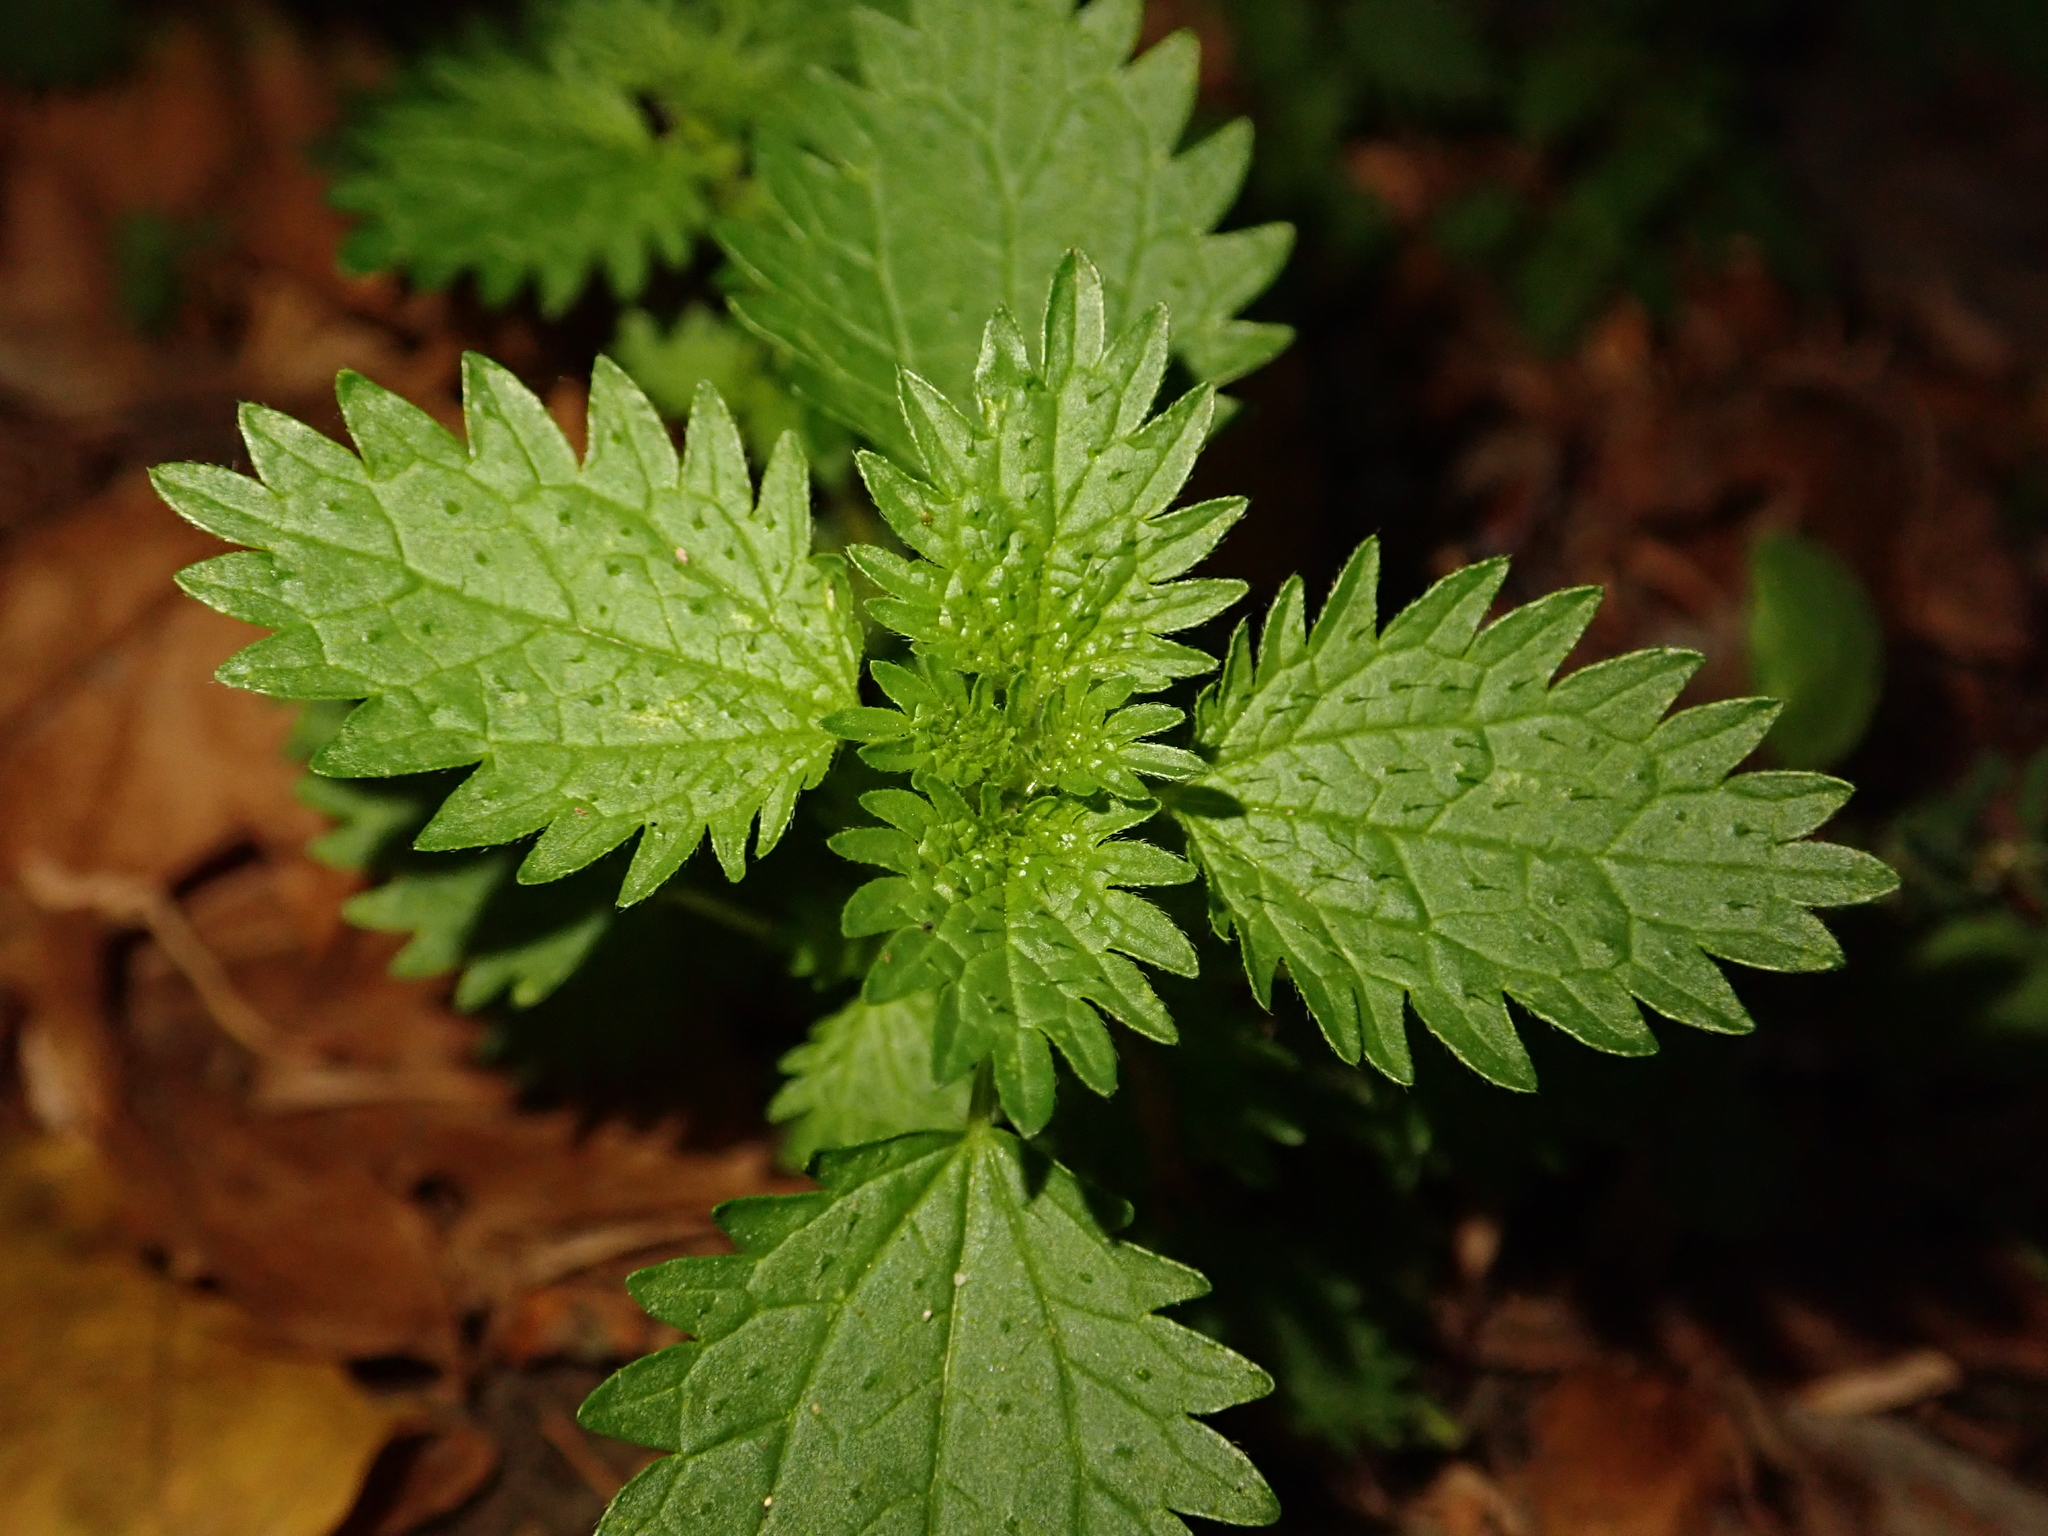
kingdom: Plantae
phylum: Tracheophyta
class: Magnoliopsida
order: Rosales
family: Urticaceae
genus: Urtica
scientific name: Urtica urens
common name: Dwarf nettle
